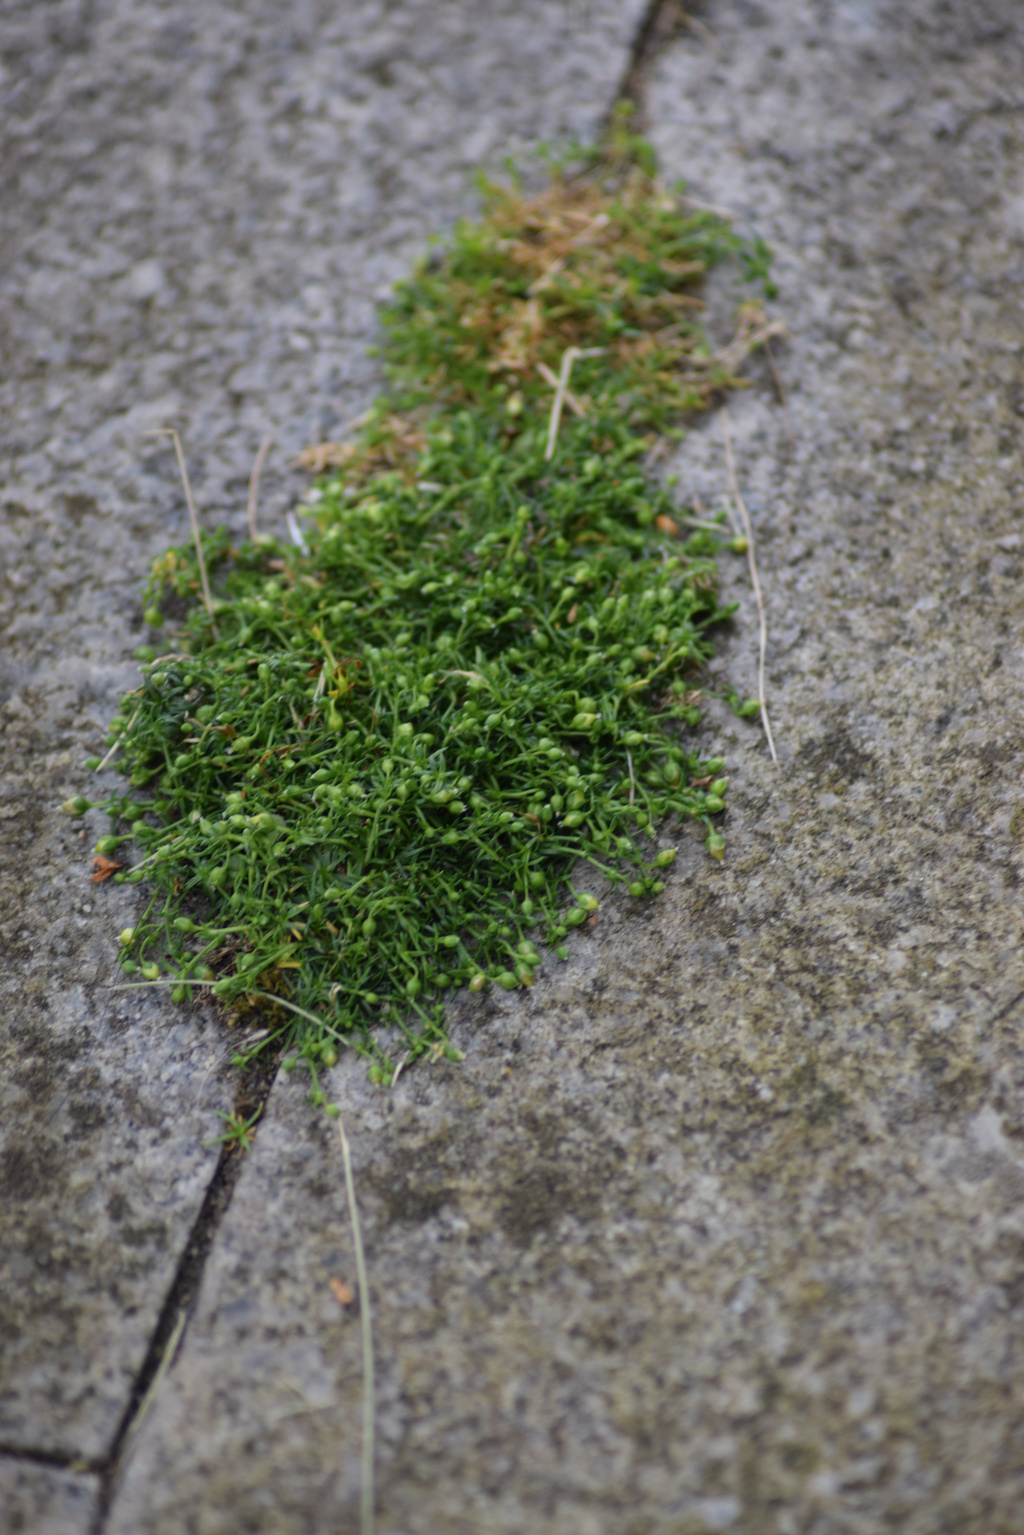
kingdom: Plantae
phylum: Tracheophyta
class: Magnoliopsida
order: Caryophyllales
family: Caryophyllaceae
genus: Sagina
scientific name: Sagina procumbens
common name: Procumbent pearlwort
